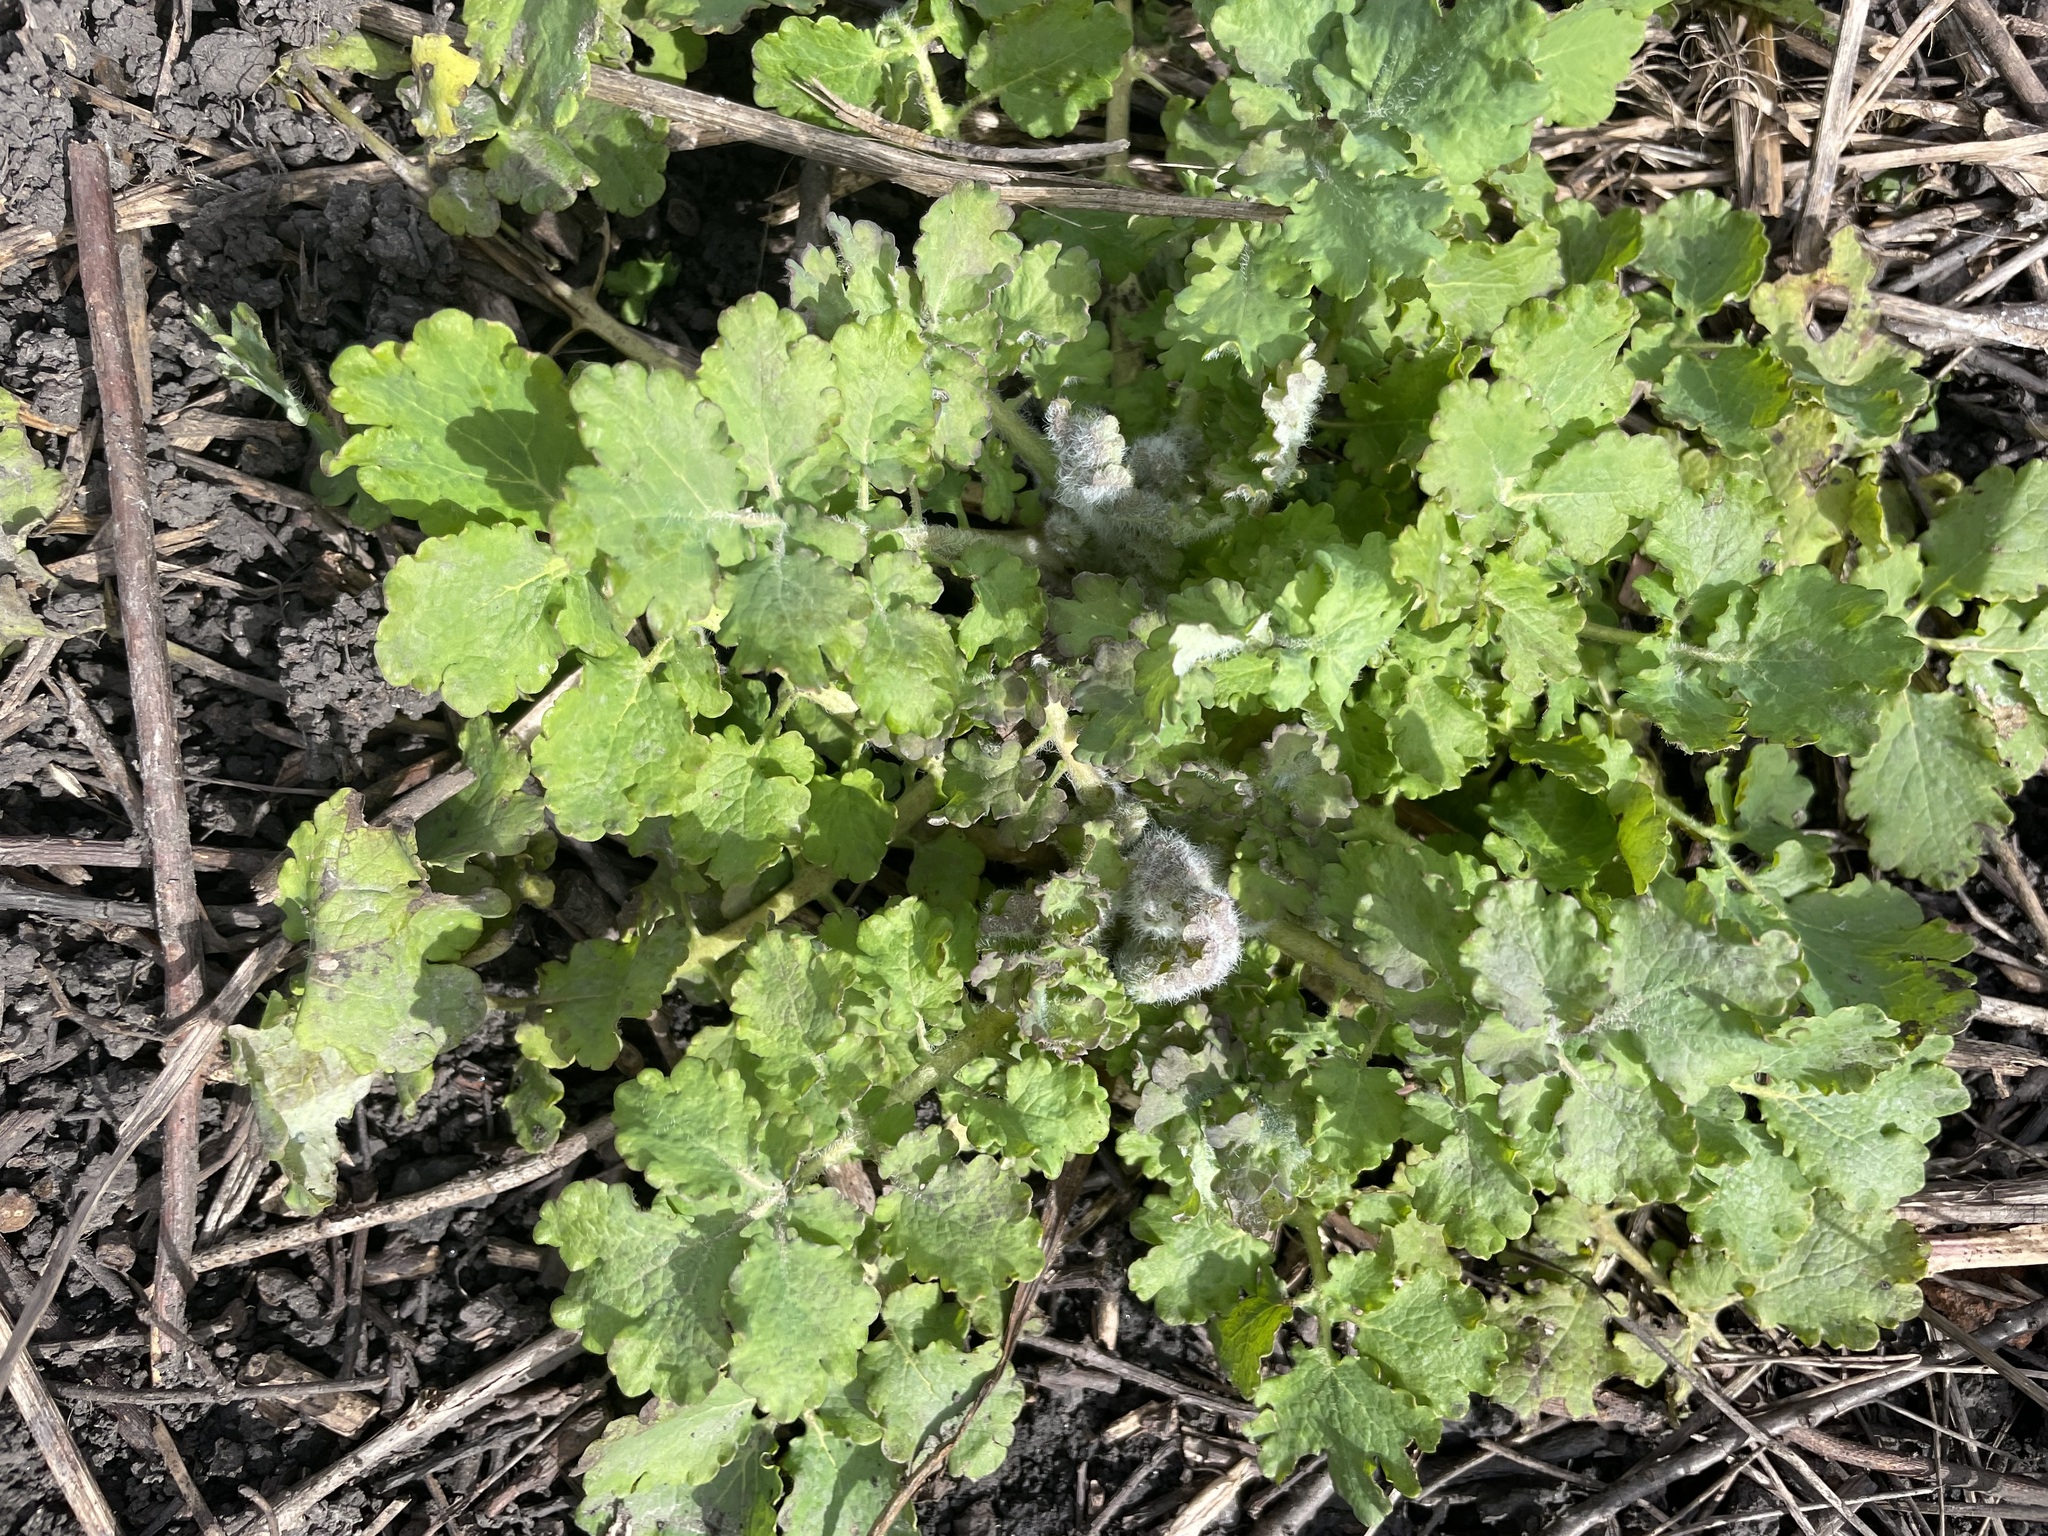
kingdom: Plantae
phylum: Tracheophyta
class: Magnoliopsida
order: Ranunculales
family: Papaveraceae
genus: Chelidonium
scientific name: Chelidonium majus
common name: Greater celandine
